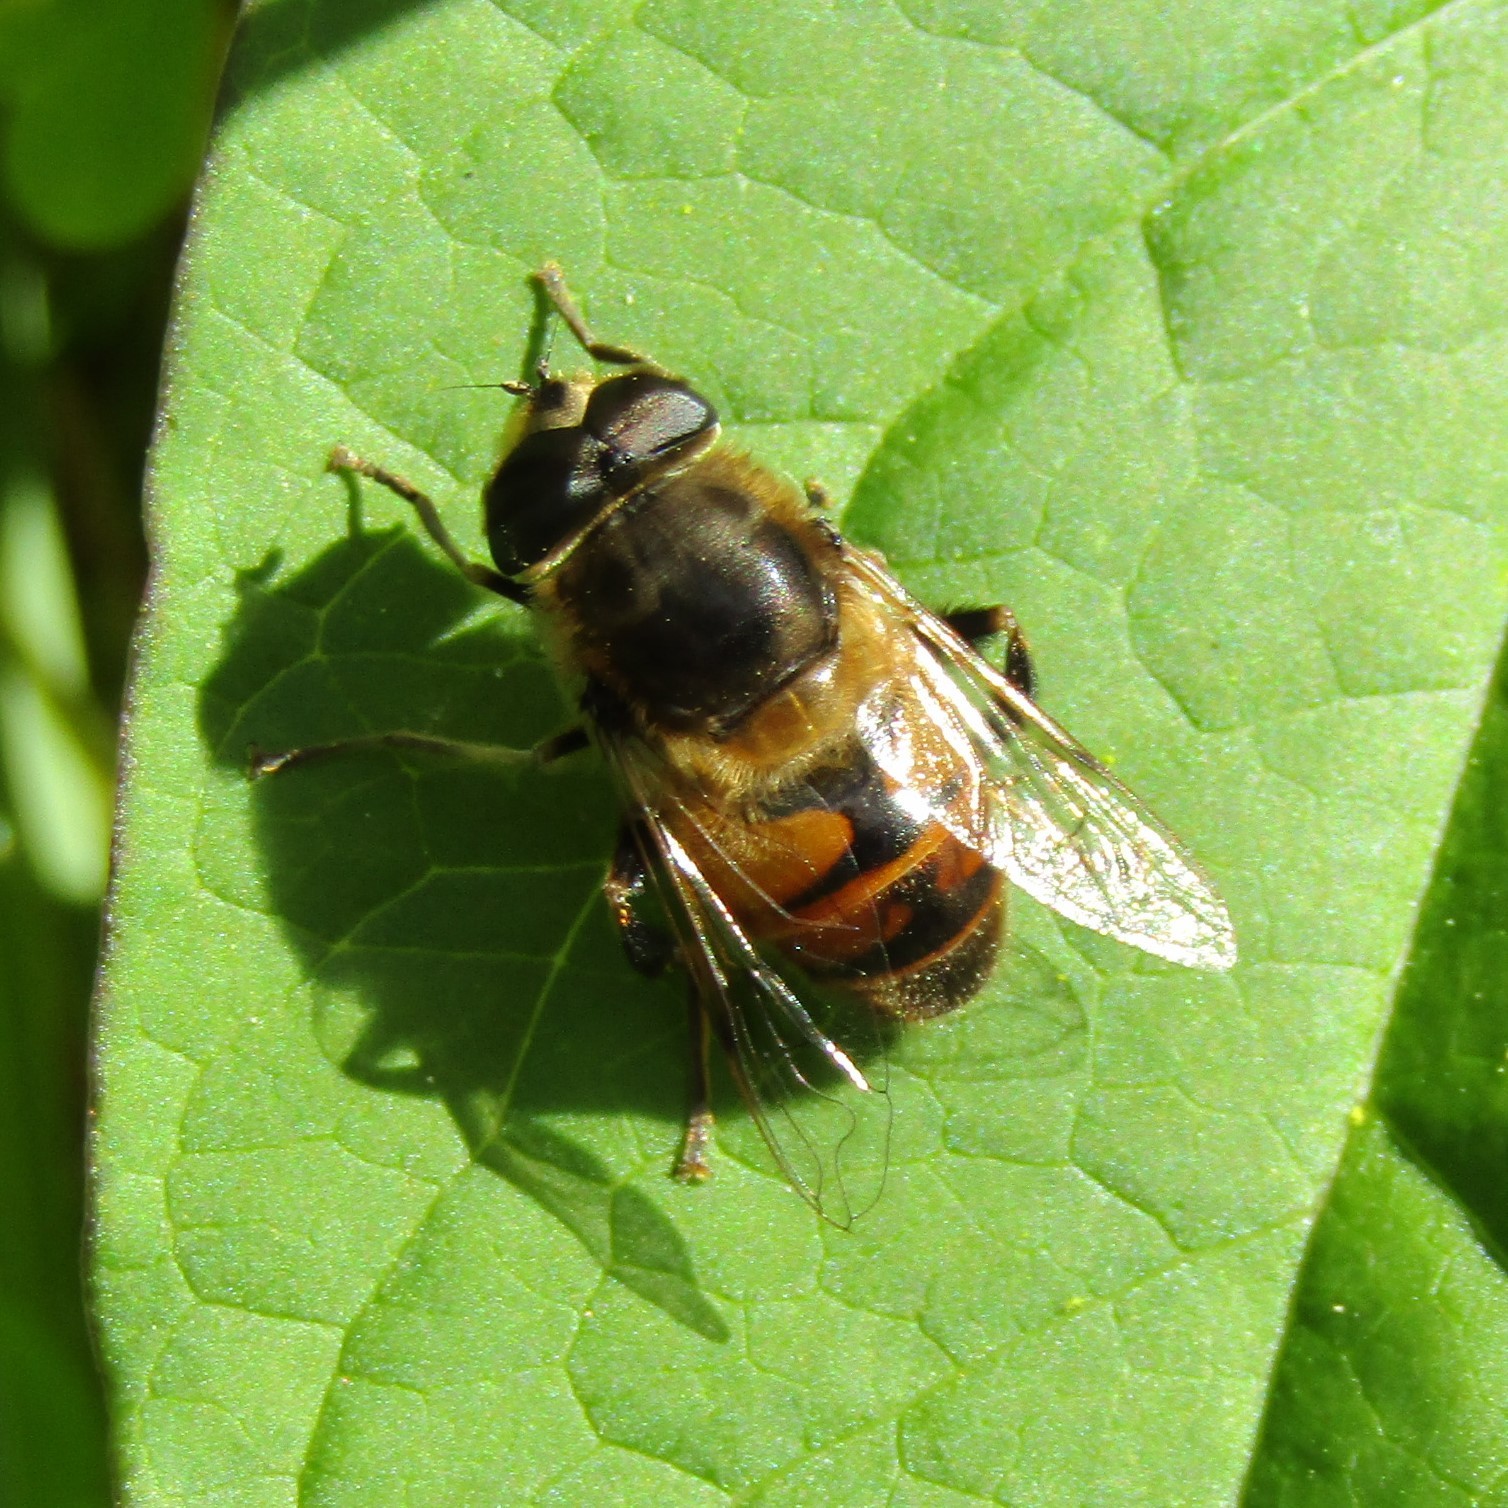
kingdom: Animalia
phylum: Arthropoda
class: Insecta
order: Diptera
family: Syrphidae
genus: Eristalis
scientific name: Eristalis tenax
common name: Drone fly
